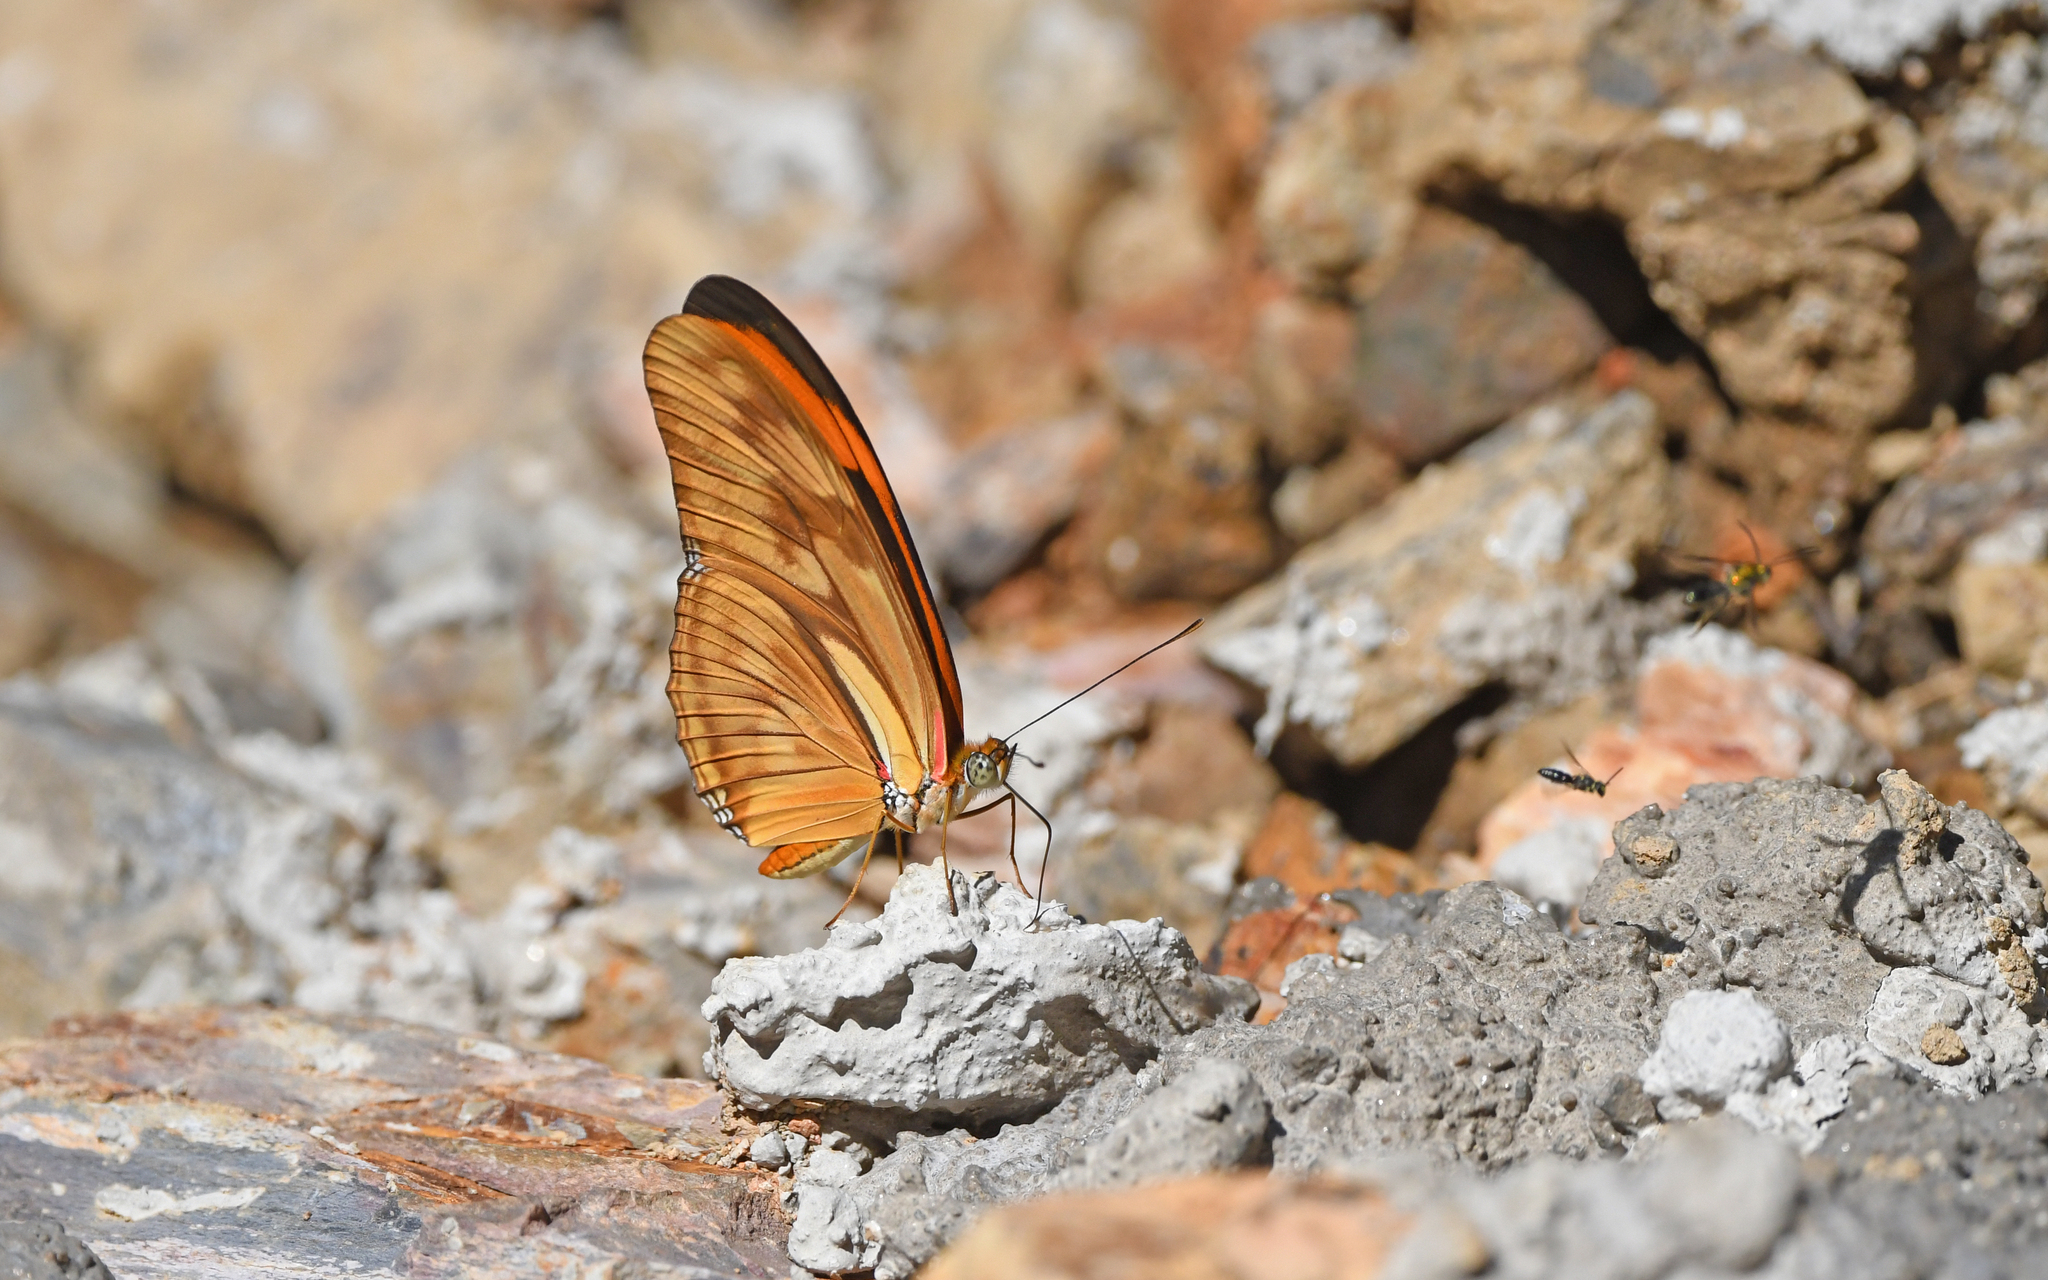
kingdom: Animalia
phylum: Arthropoda
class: Insecta
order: Lepidoptera
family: Nymphalidae
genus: Dryas
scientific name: Dryas iulia
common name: Flambeau
